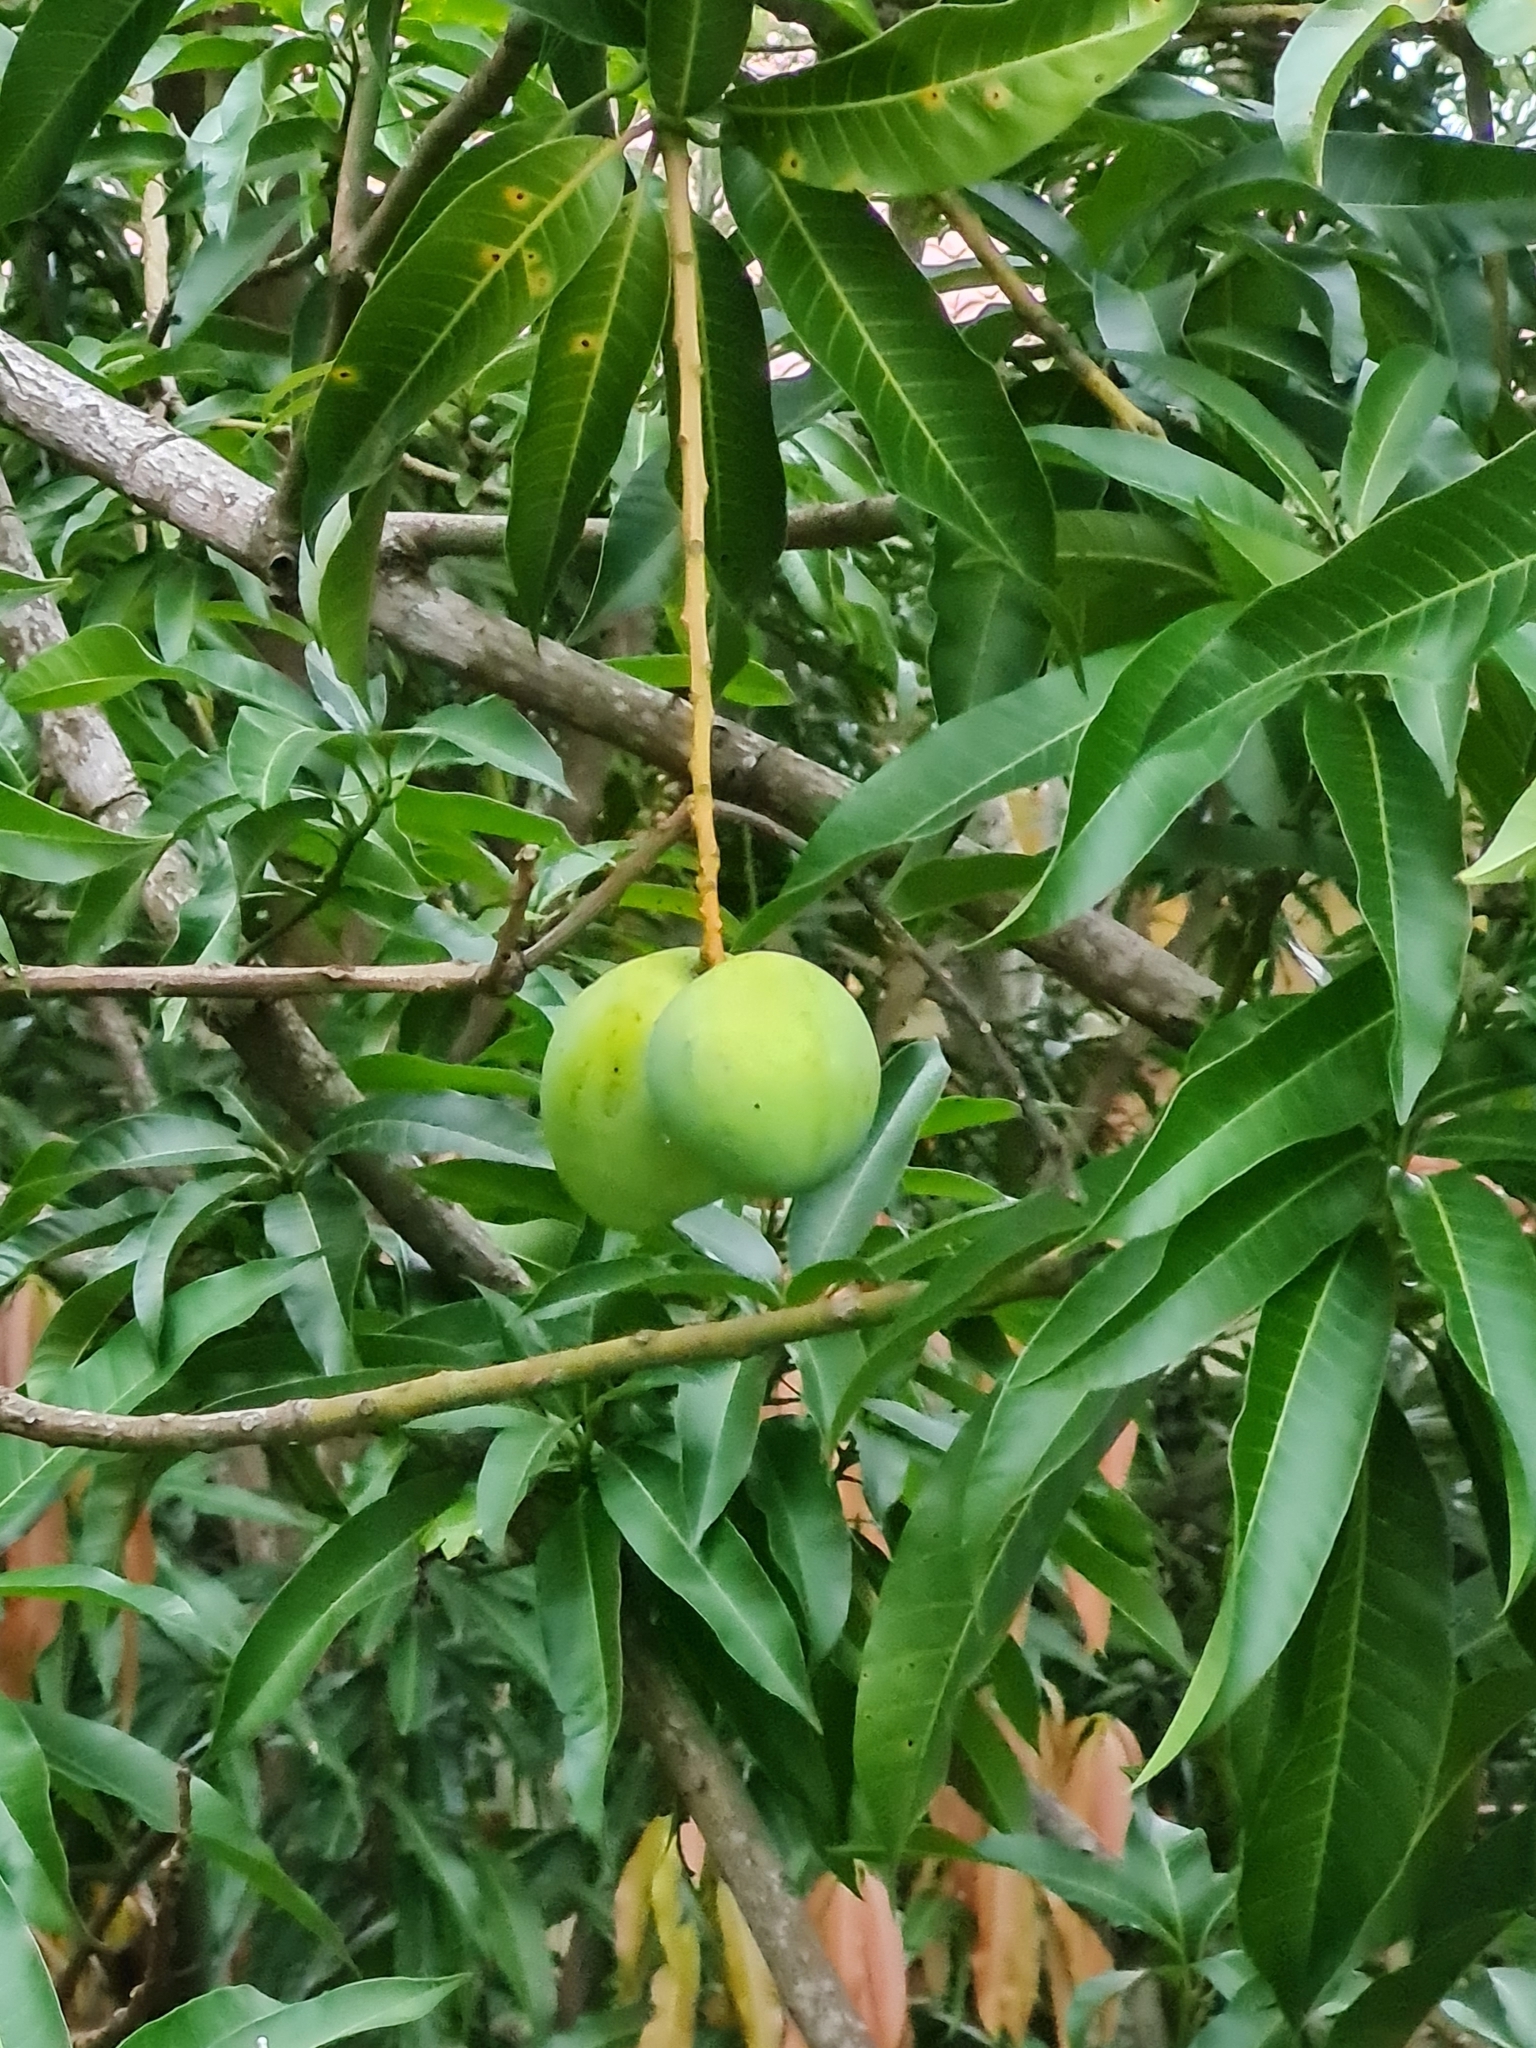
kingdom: Plantae
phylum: Tracheophyta
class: Magnoliopsida
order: Sapindales
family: Anacardiaceae
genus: Mangifera
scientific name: Mangifera indica
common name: Mango
